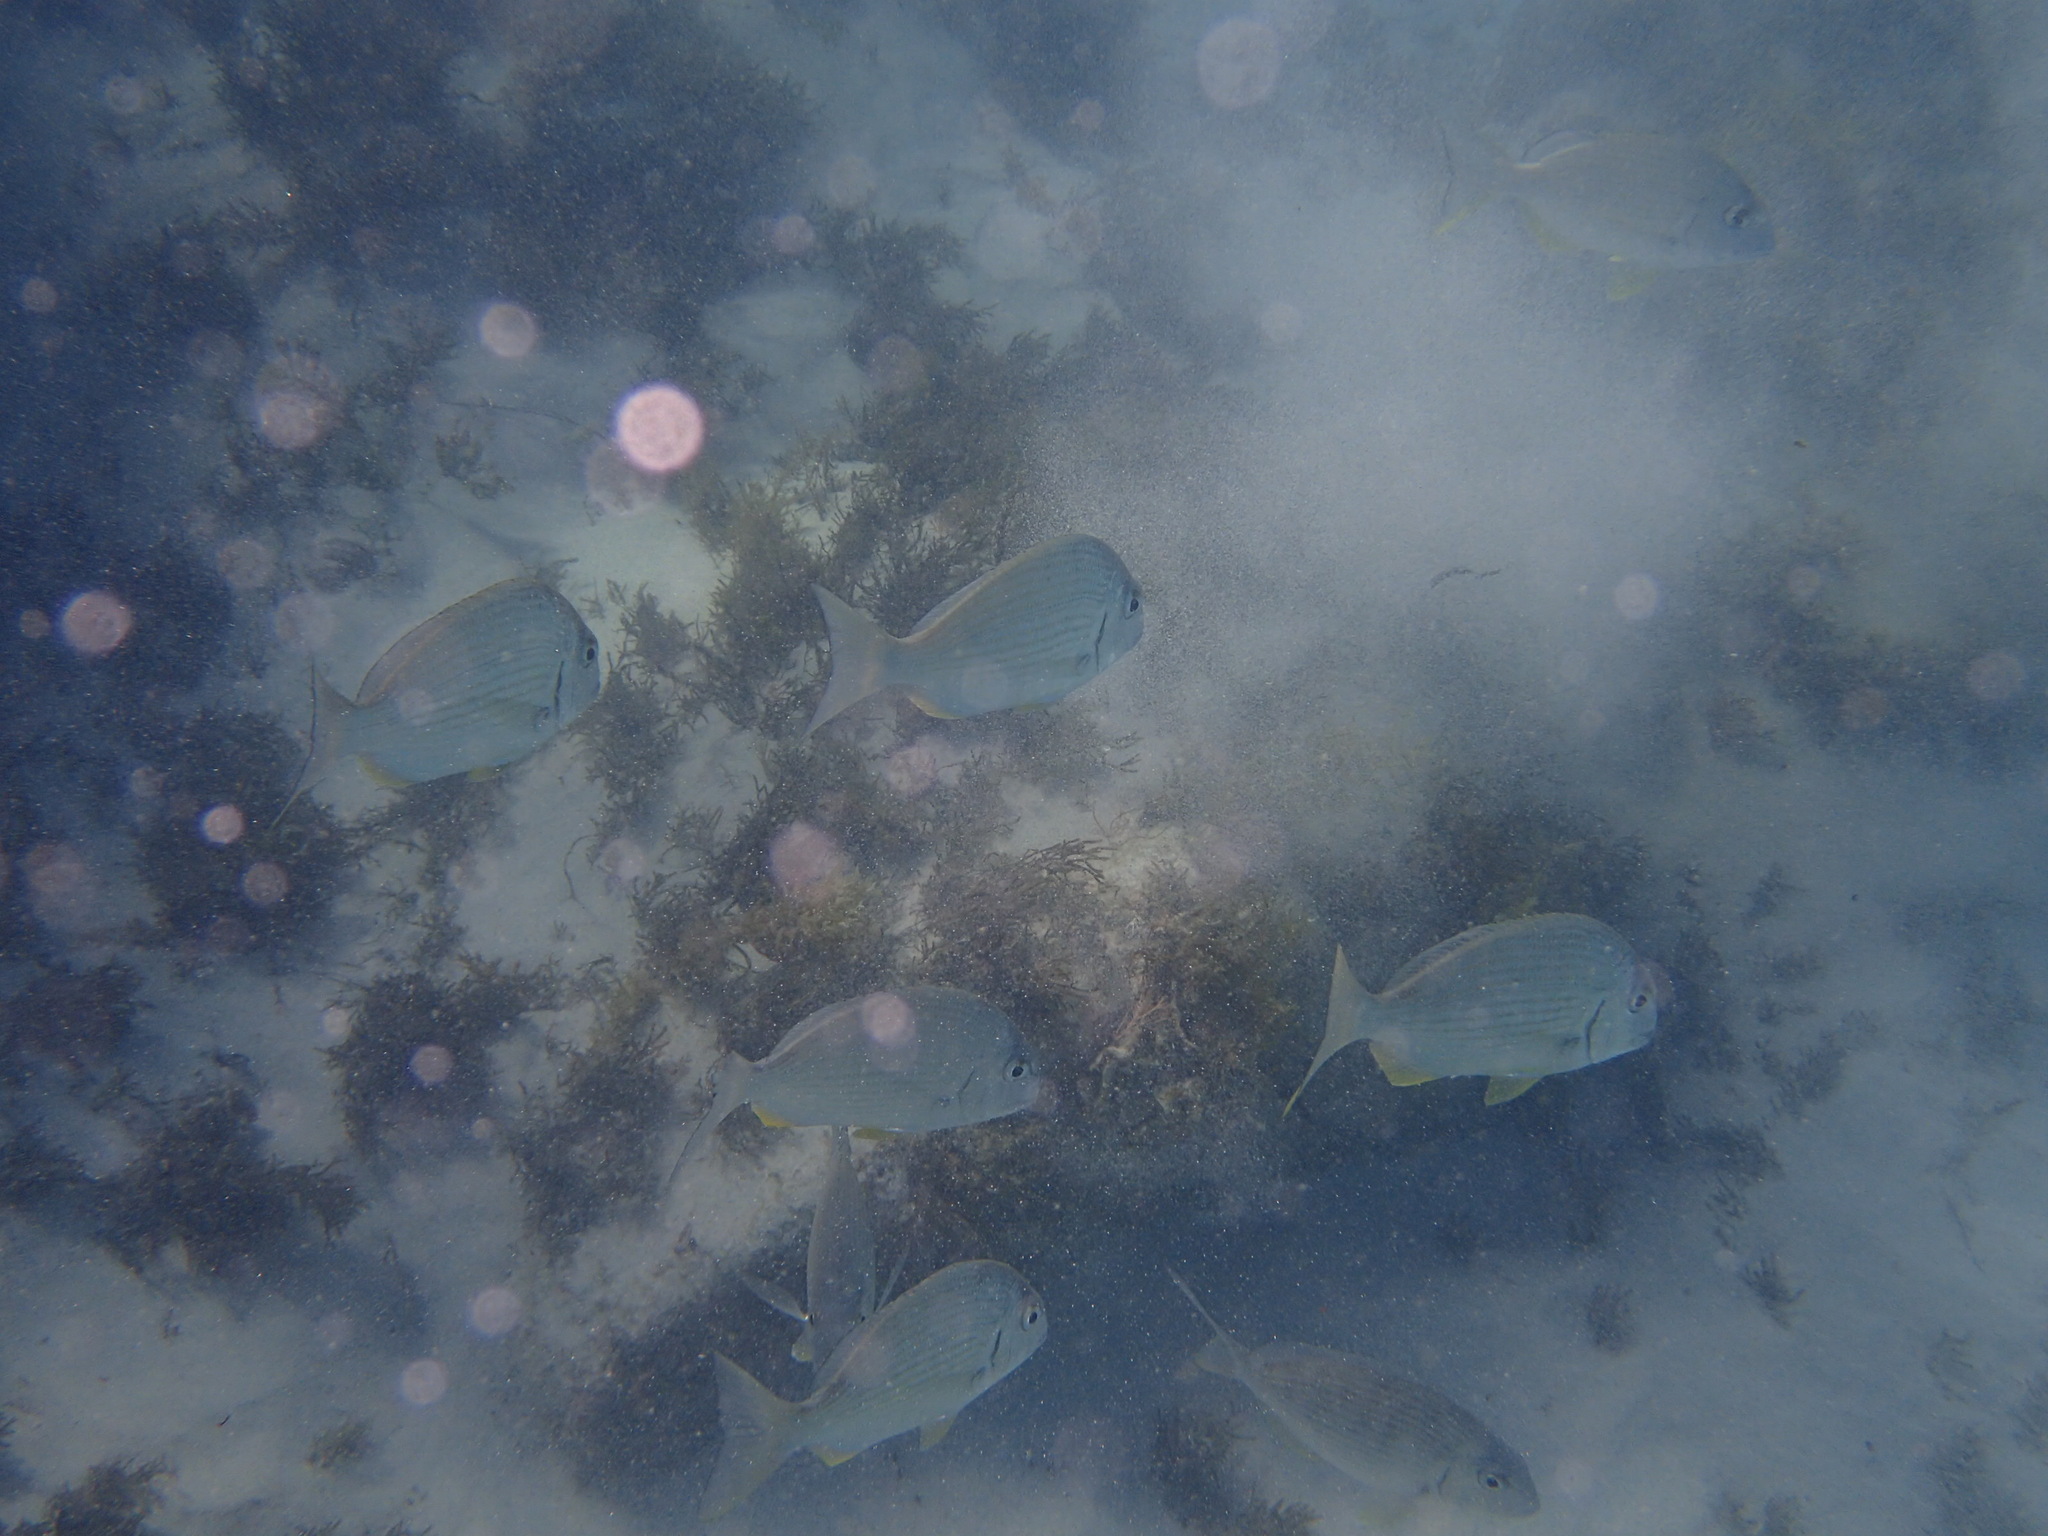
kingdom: Animalia
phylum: Chordata
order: Perciformes
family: Sparidae
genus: Rhabdosargus
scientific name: Rhabdosargus sarba
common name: Goldlined seabream
